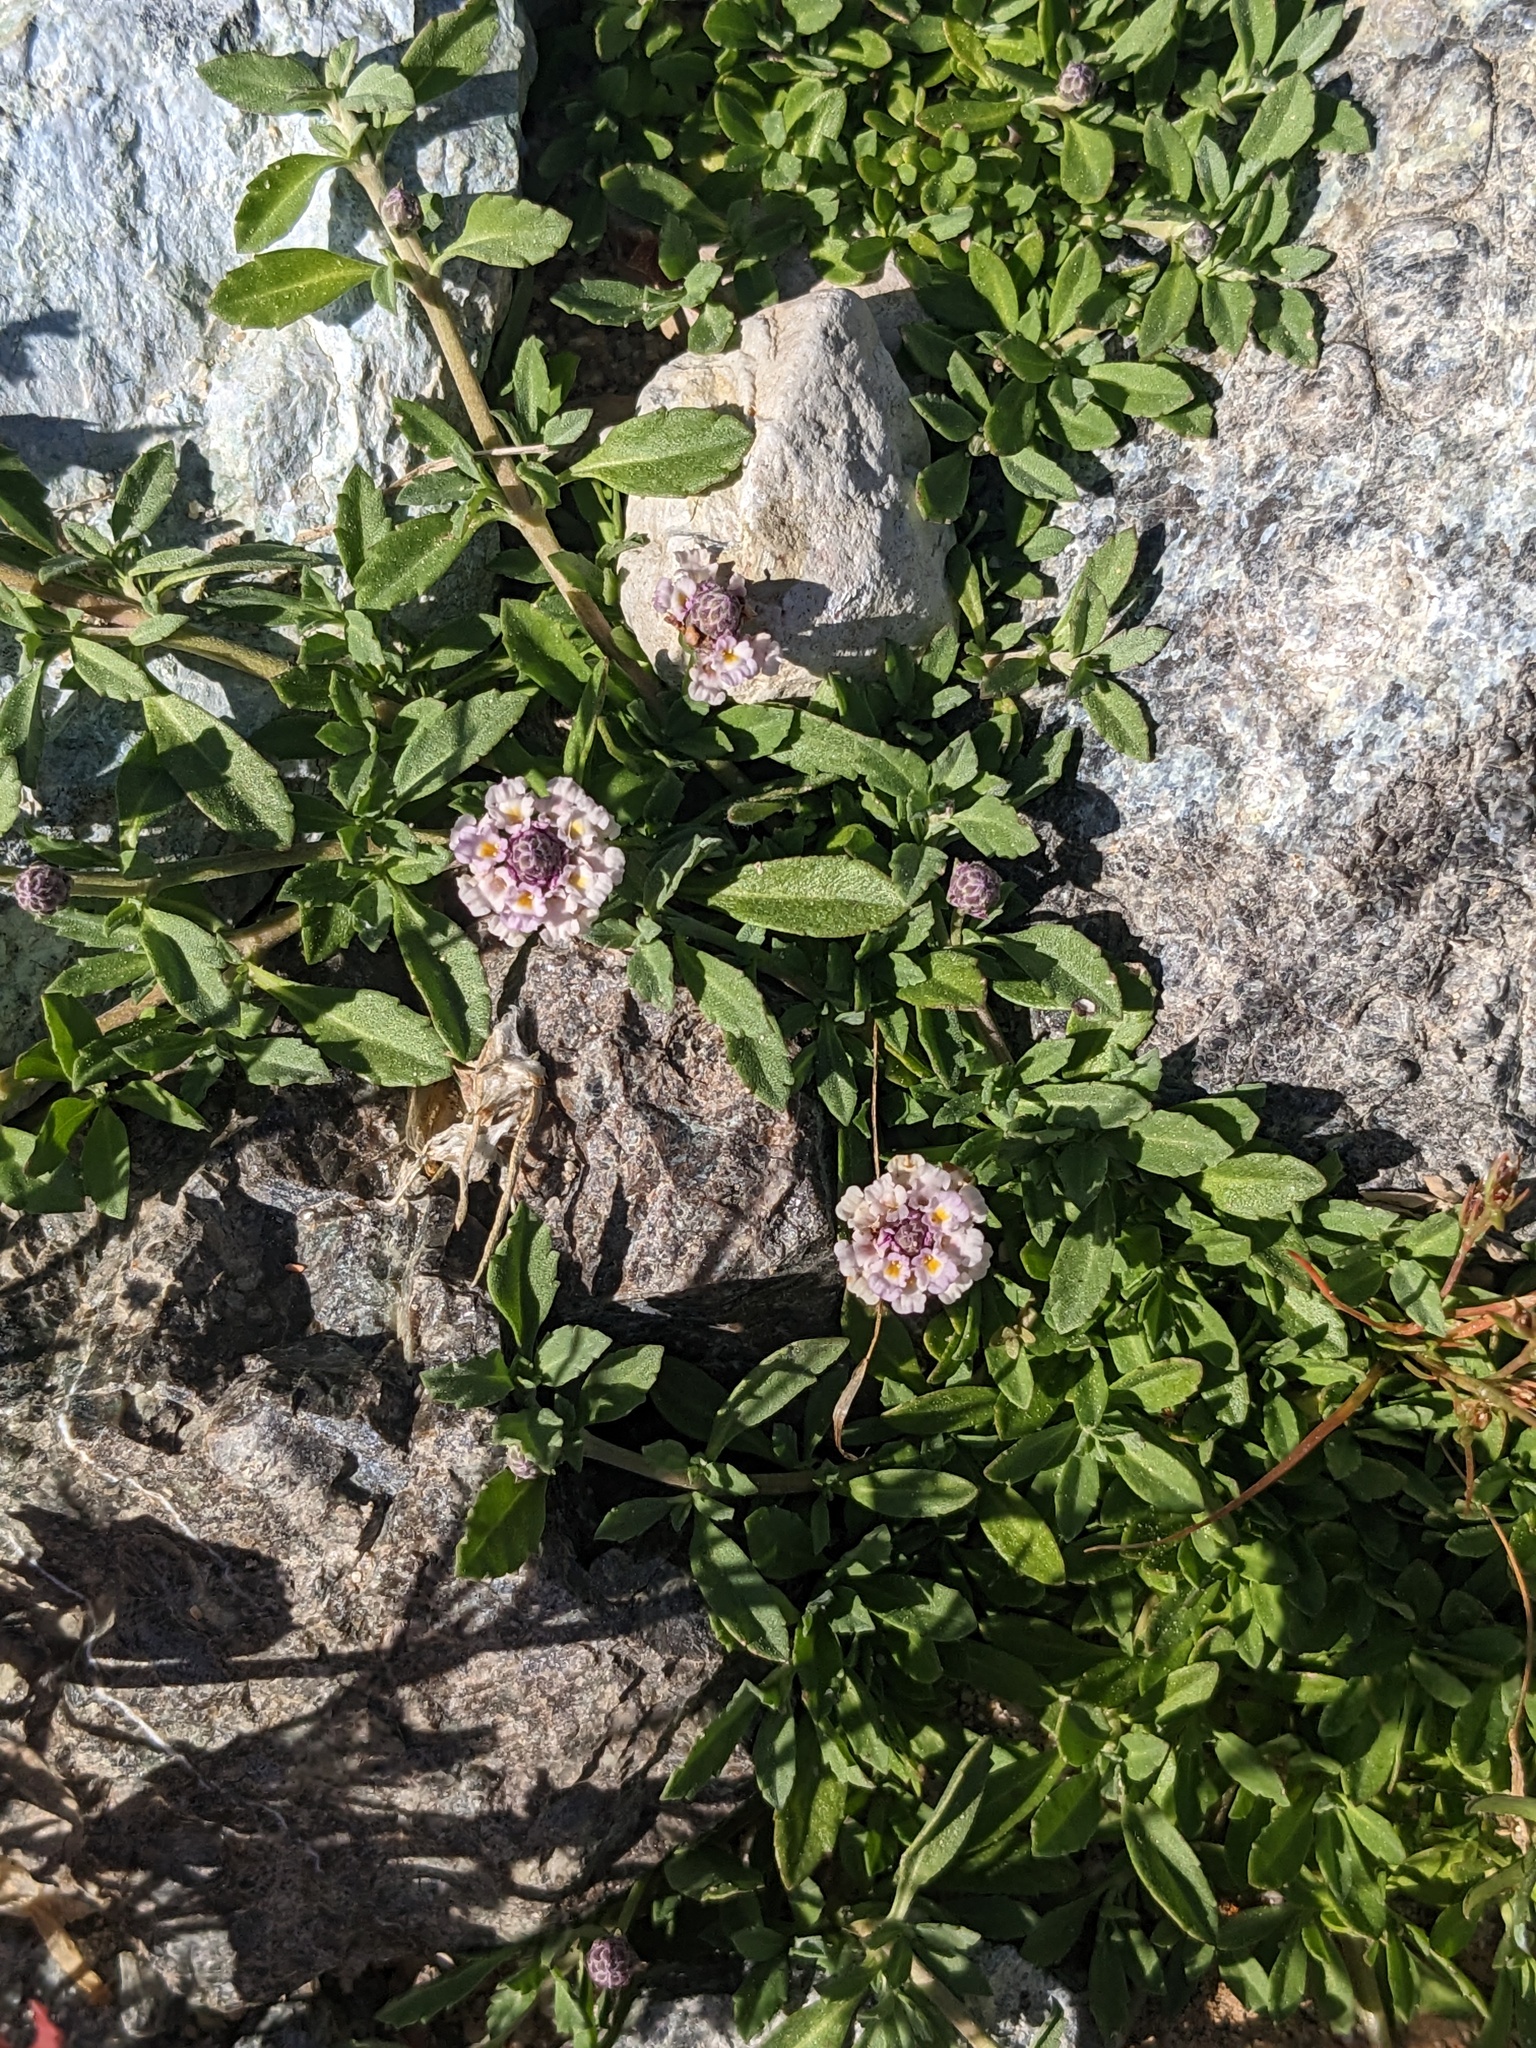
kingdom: Plantae
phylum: Tracheophyta
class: Magnoliopsida
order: Lamiales
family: Verbenaceae
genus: Phyla
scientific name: Phyla nodiflora
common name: Frogfruit
